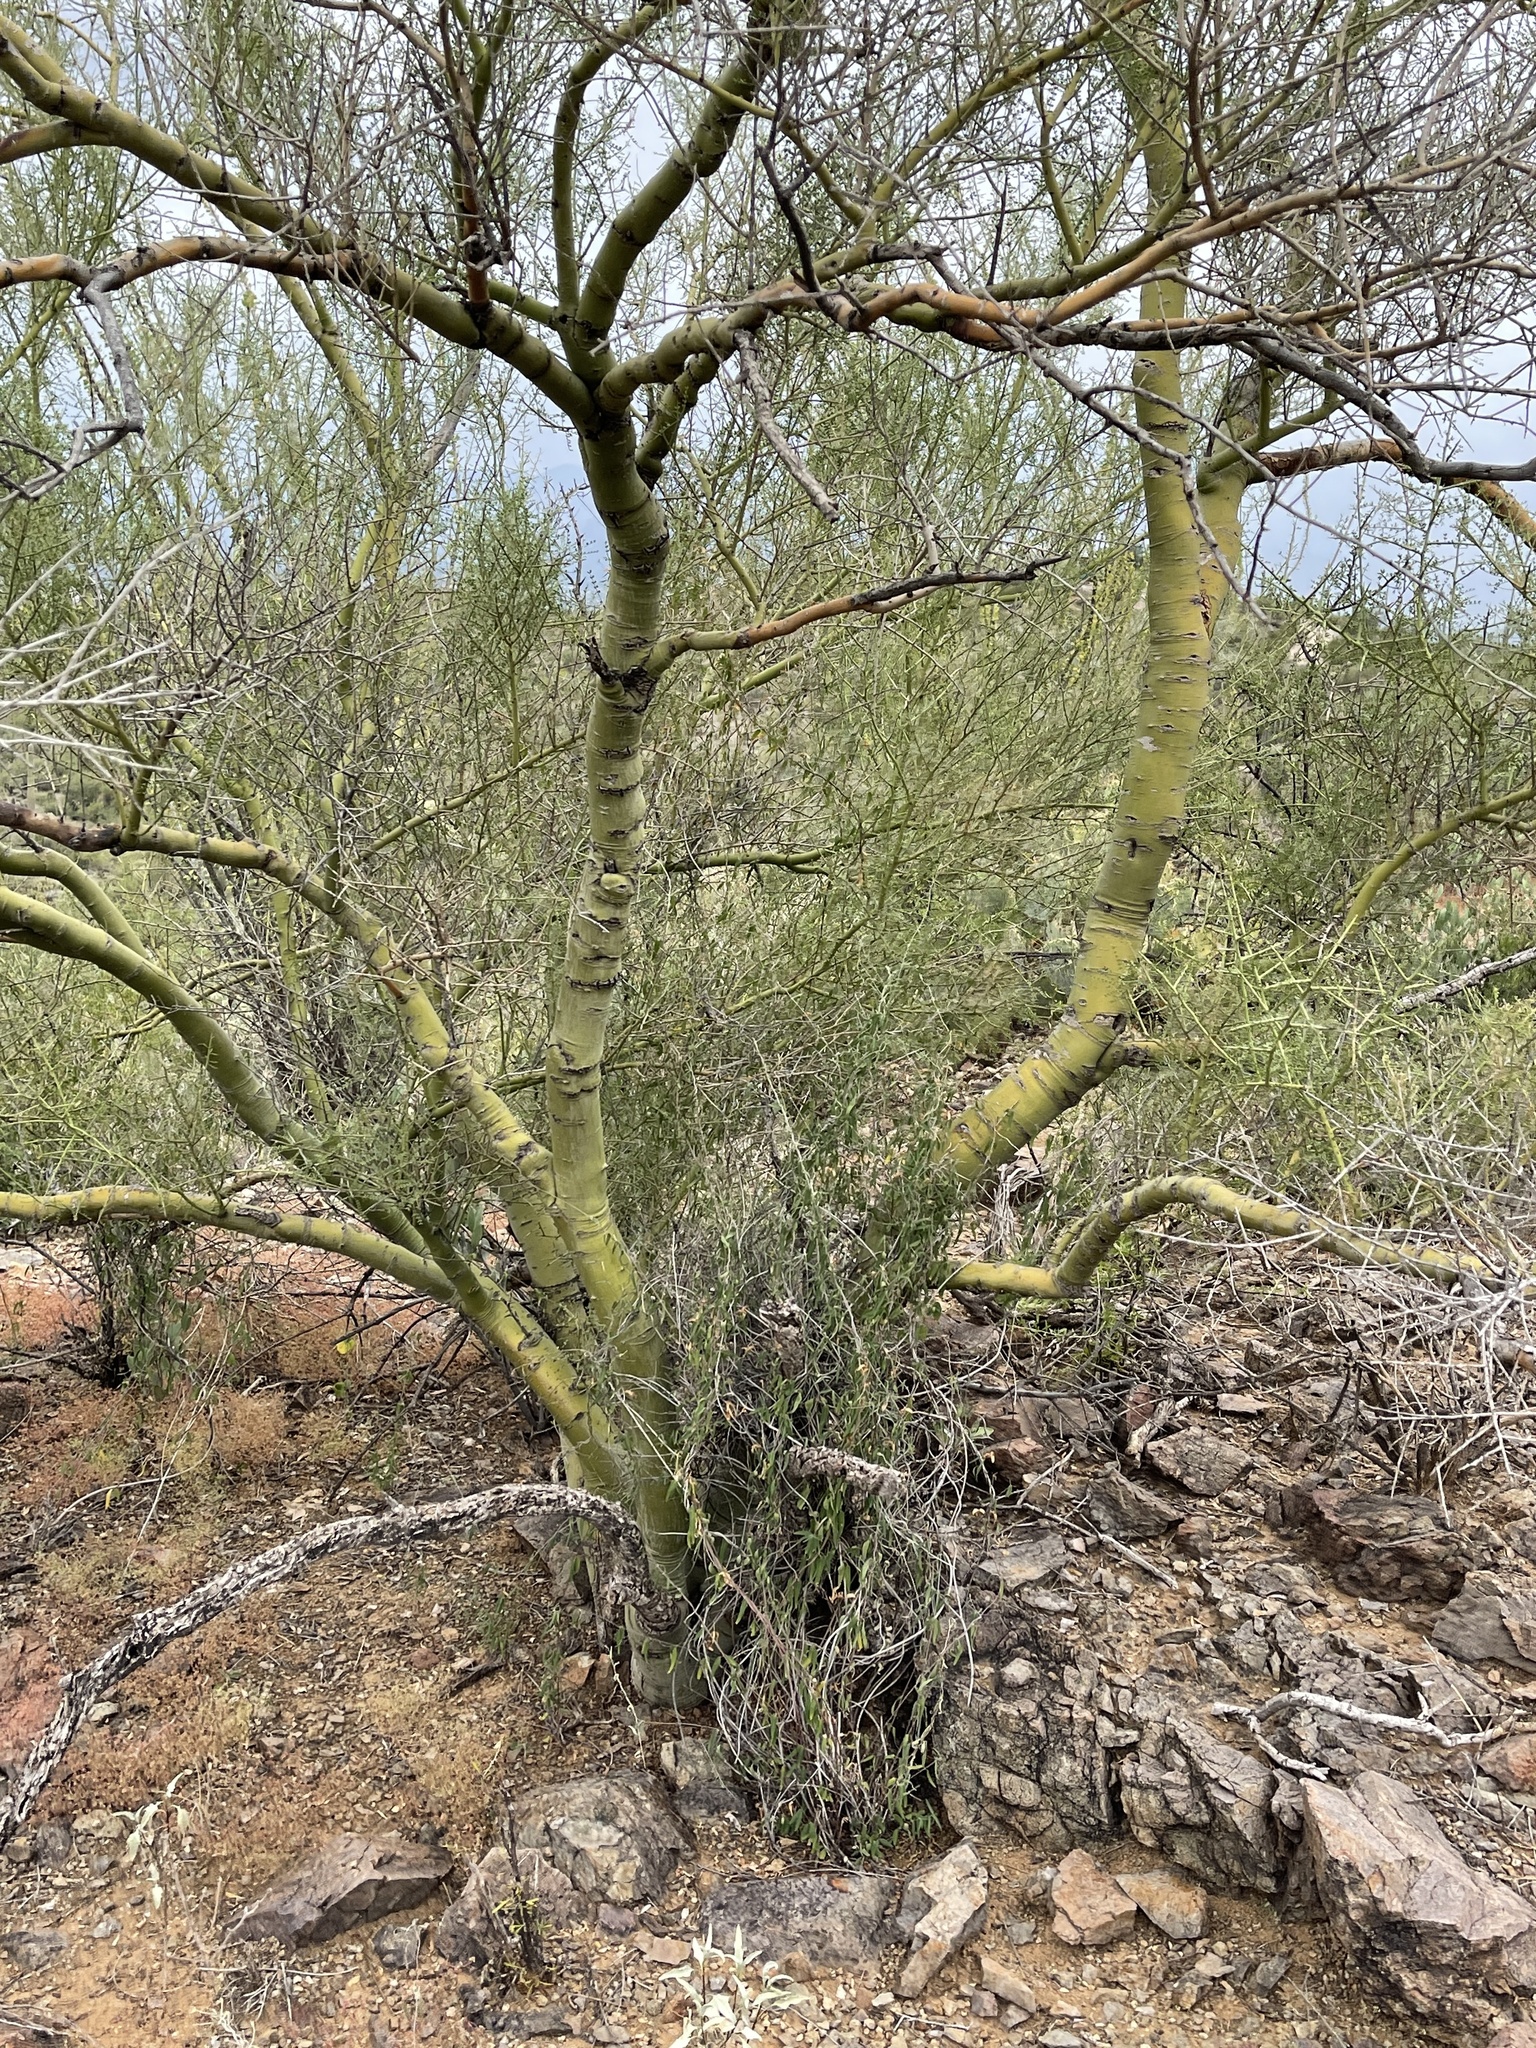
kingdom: Plantae
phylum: Tracheophyta
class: Magnoliopsida
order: Fabales
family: Fabaceae
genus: Parkinsonia
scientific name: Parkinsonia microphylla
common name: Yellow paloverde
